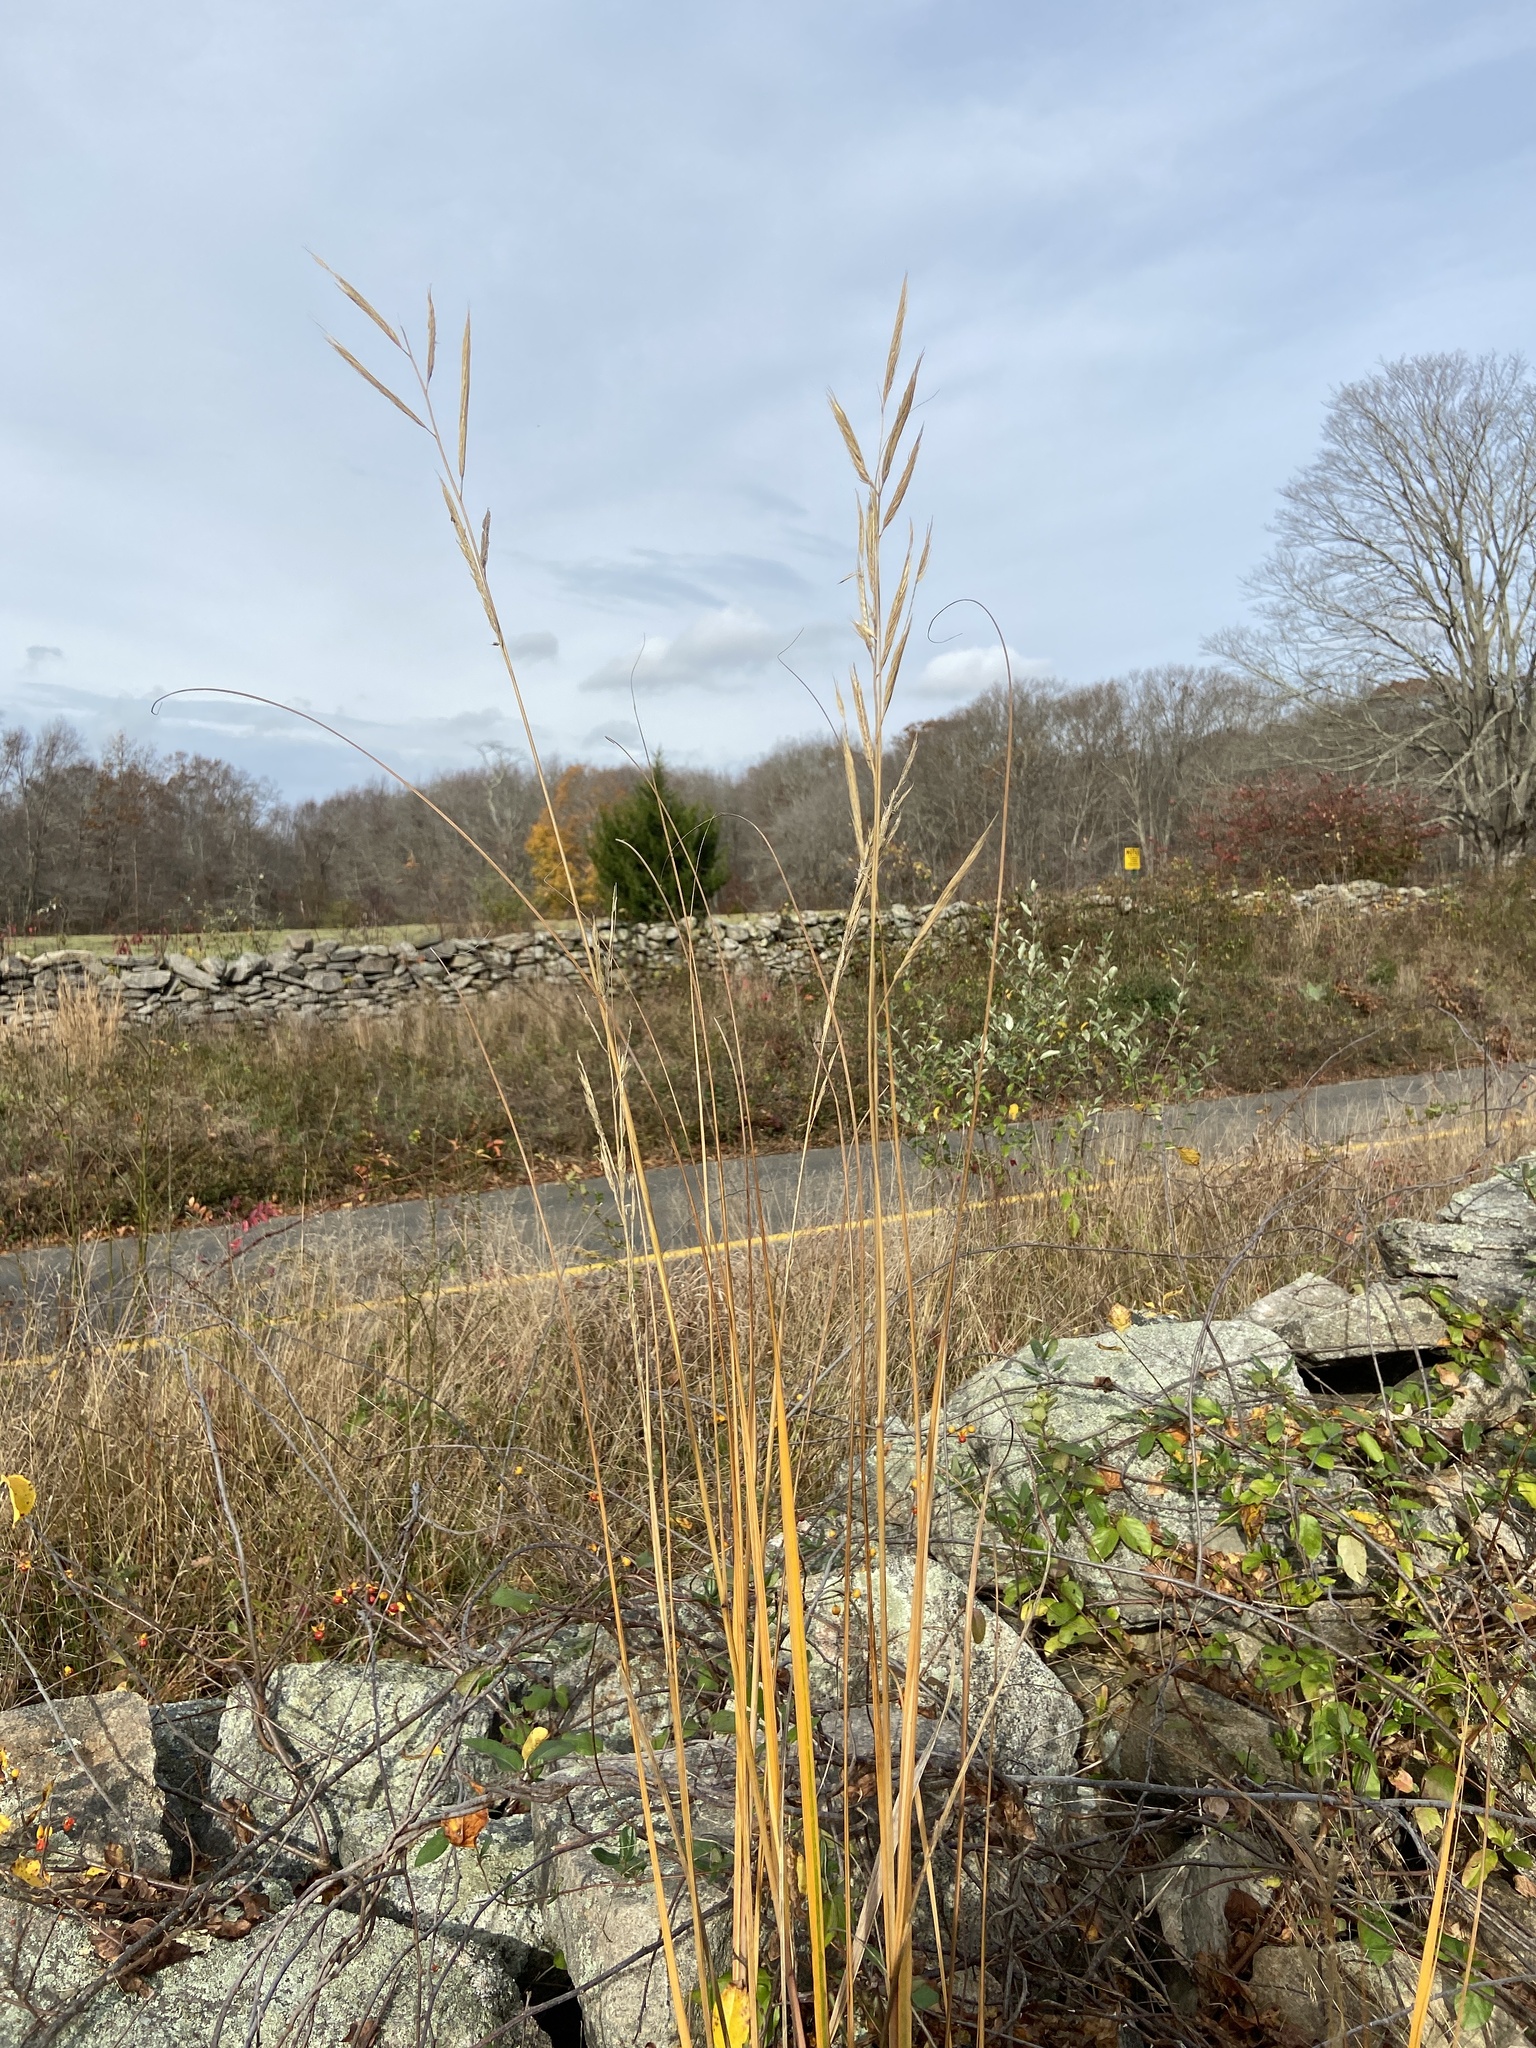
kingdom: Plantae
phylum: Tracheophyta
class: Liliopsida
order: Poales
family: Poaceae
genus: Sporobolus
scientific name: Sporobolus michauxianus
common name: Freshwater cordgrass
